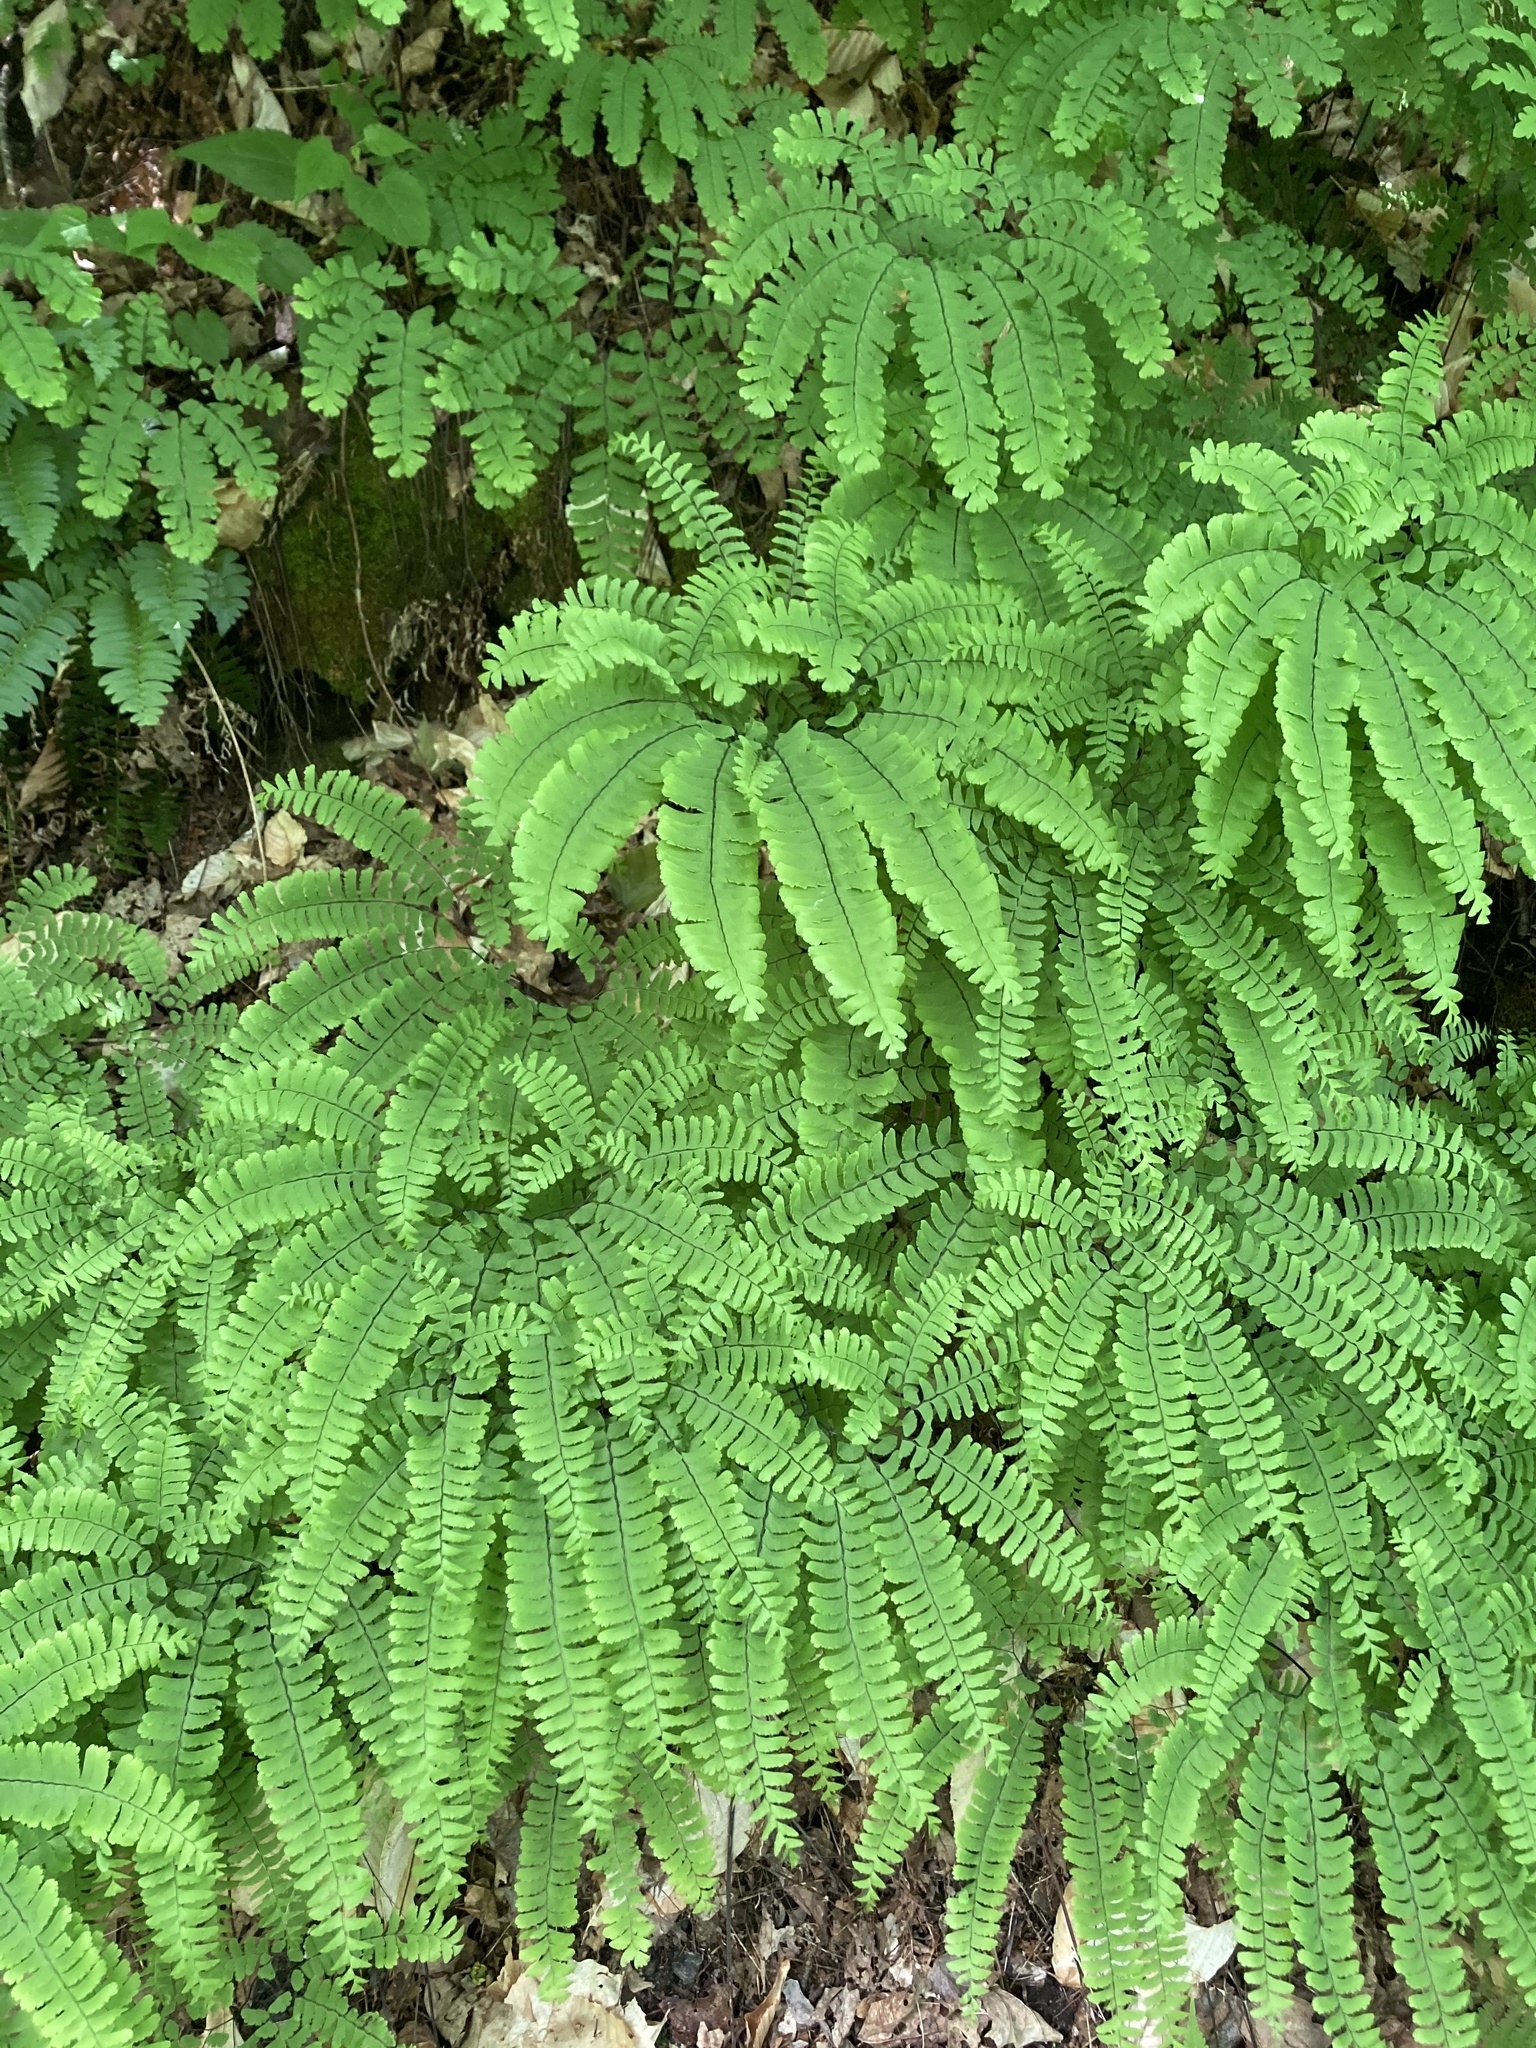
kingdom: Plantae
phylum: Tracheophyta
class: Polypodiopsida
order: Polypodiales
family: Pteridaceae
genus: Adiantum
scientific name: Adiantum pedatum
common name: Five-finger fern
